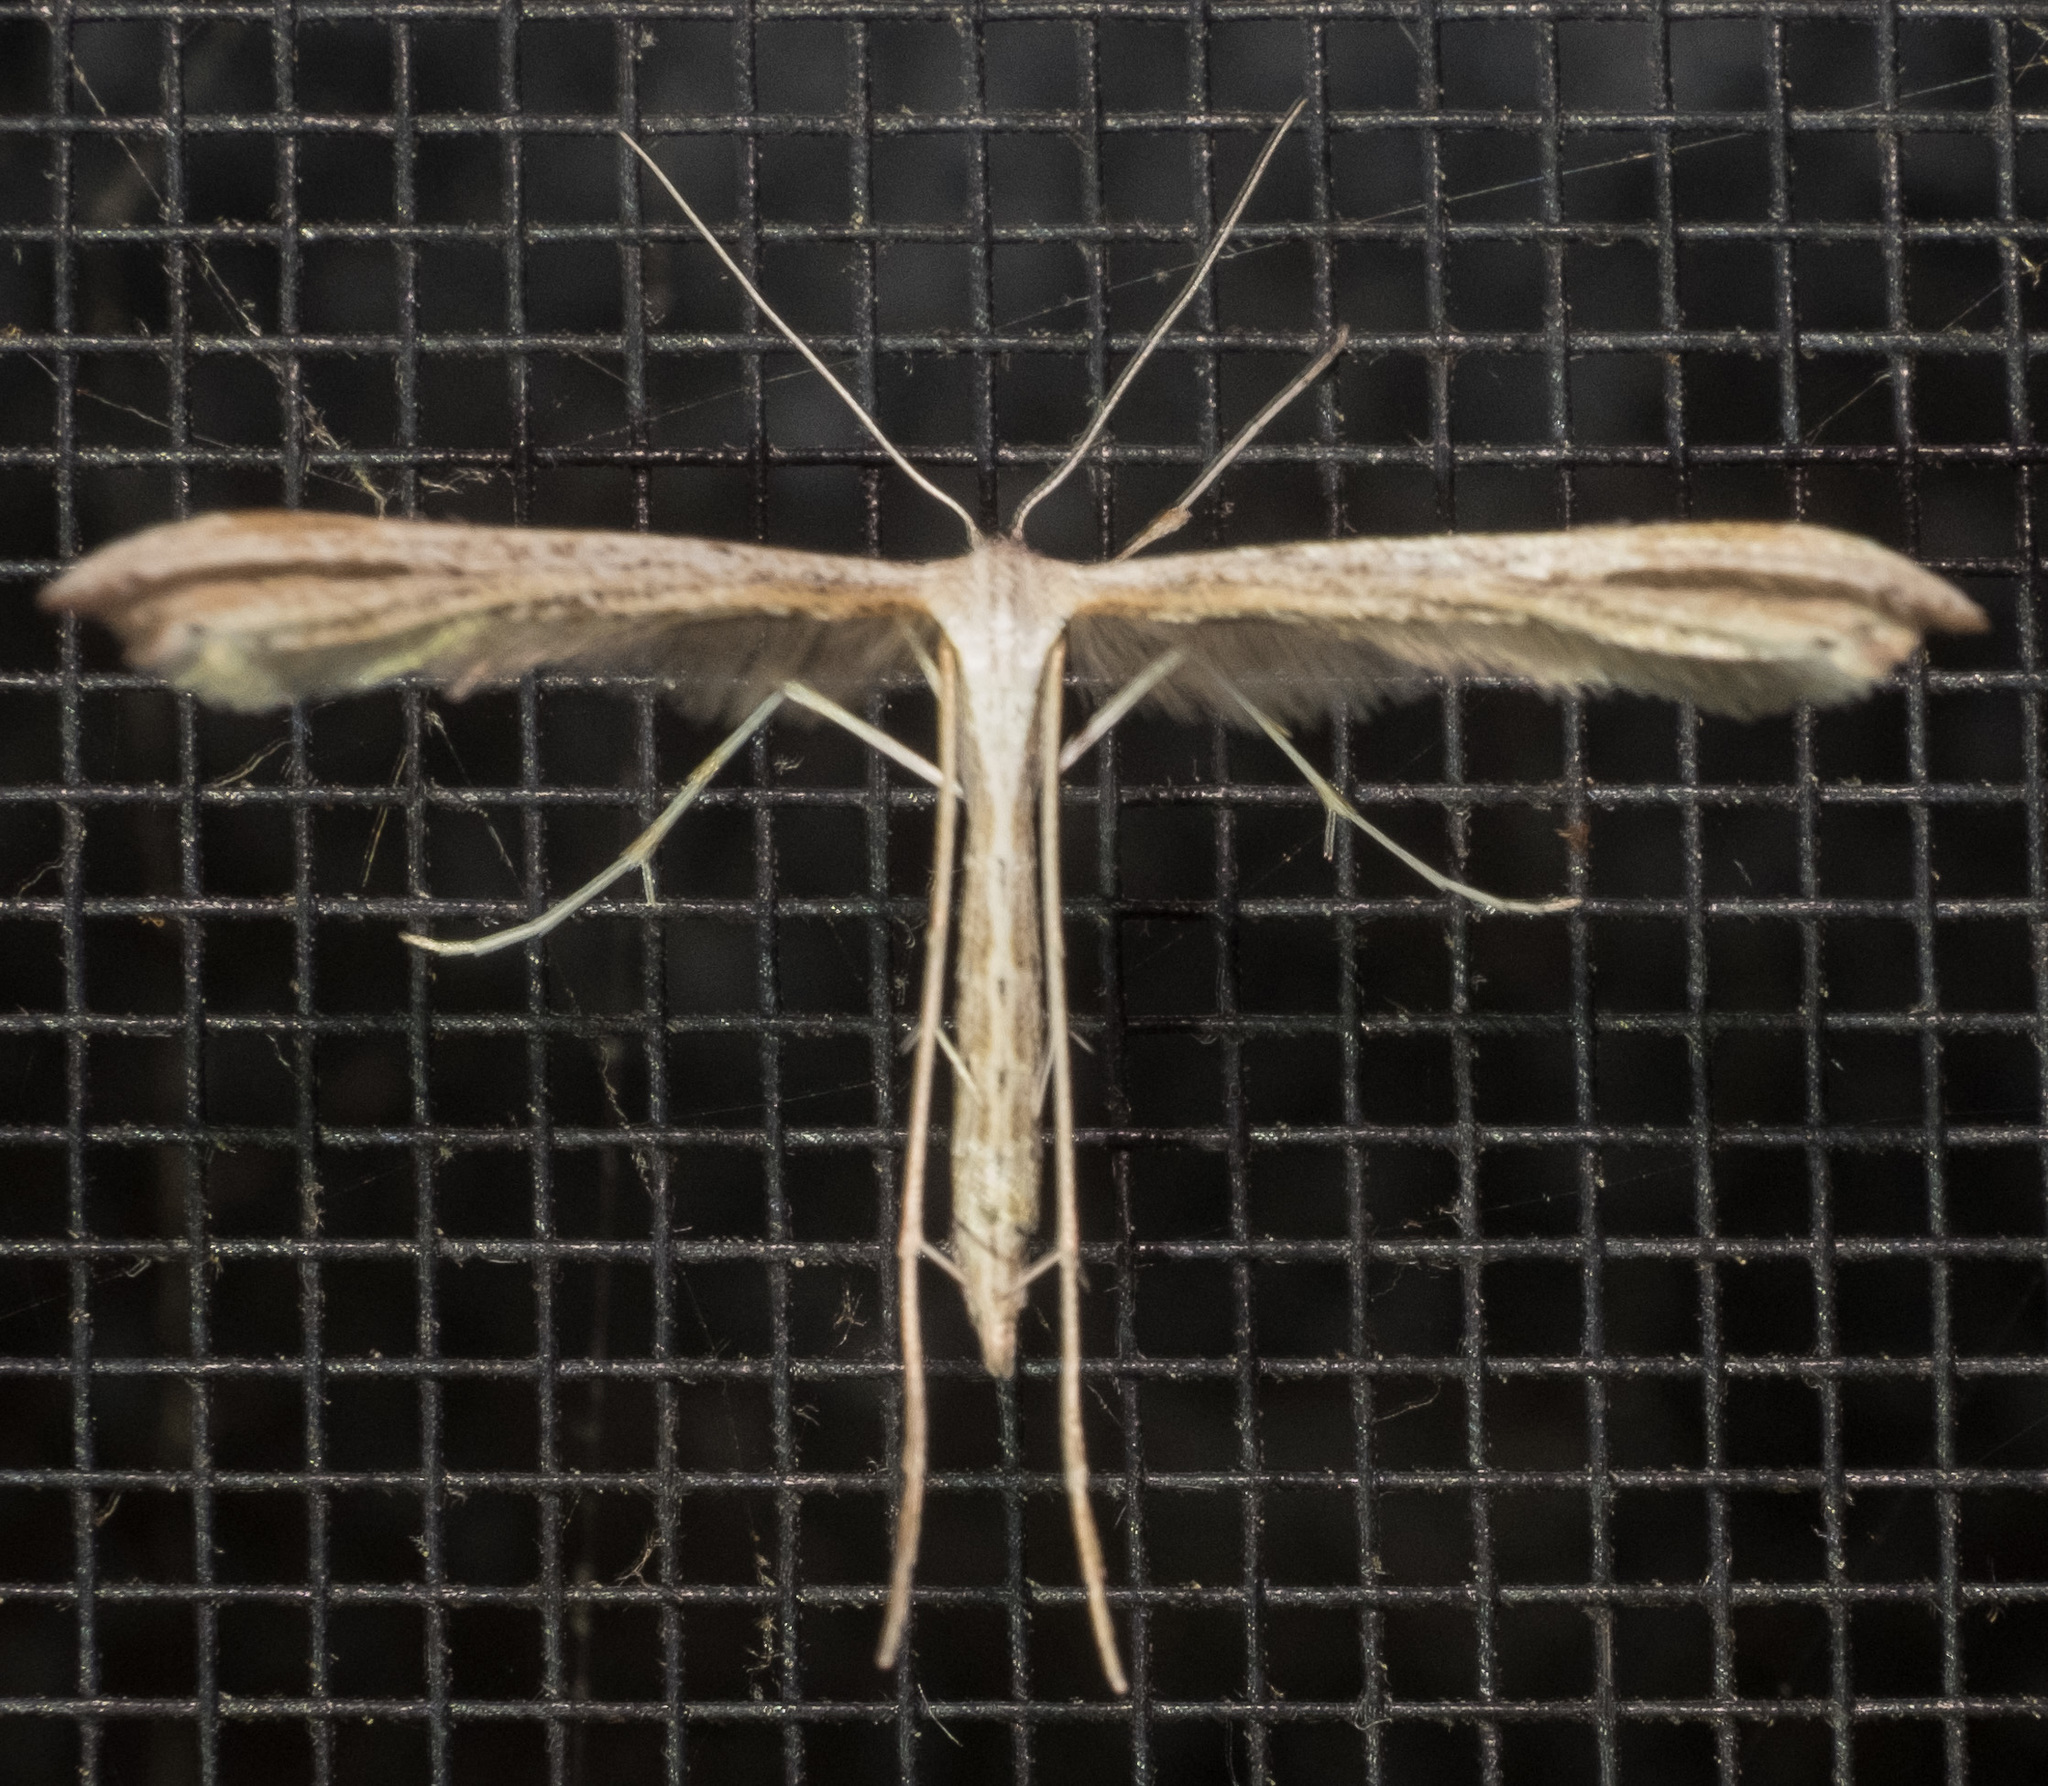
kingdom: Animalia
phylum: Arthropoda
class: Insecta
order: Lepidoptera
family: Pterophoridae
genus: Emmelina
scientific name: Emmelina monodactyla
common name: Common plume
